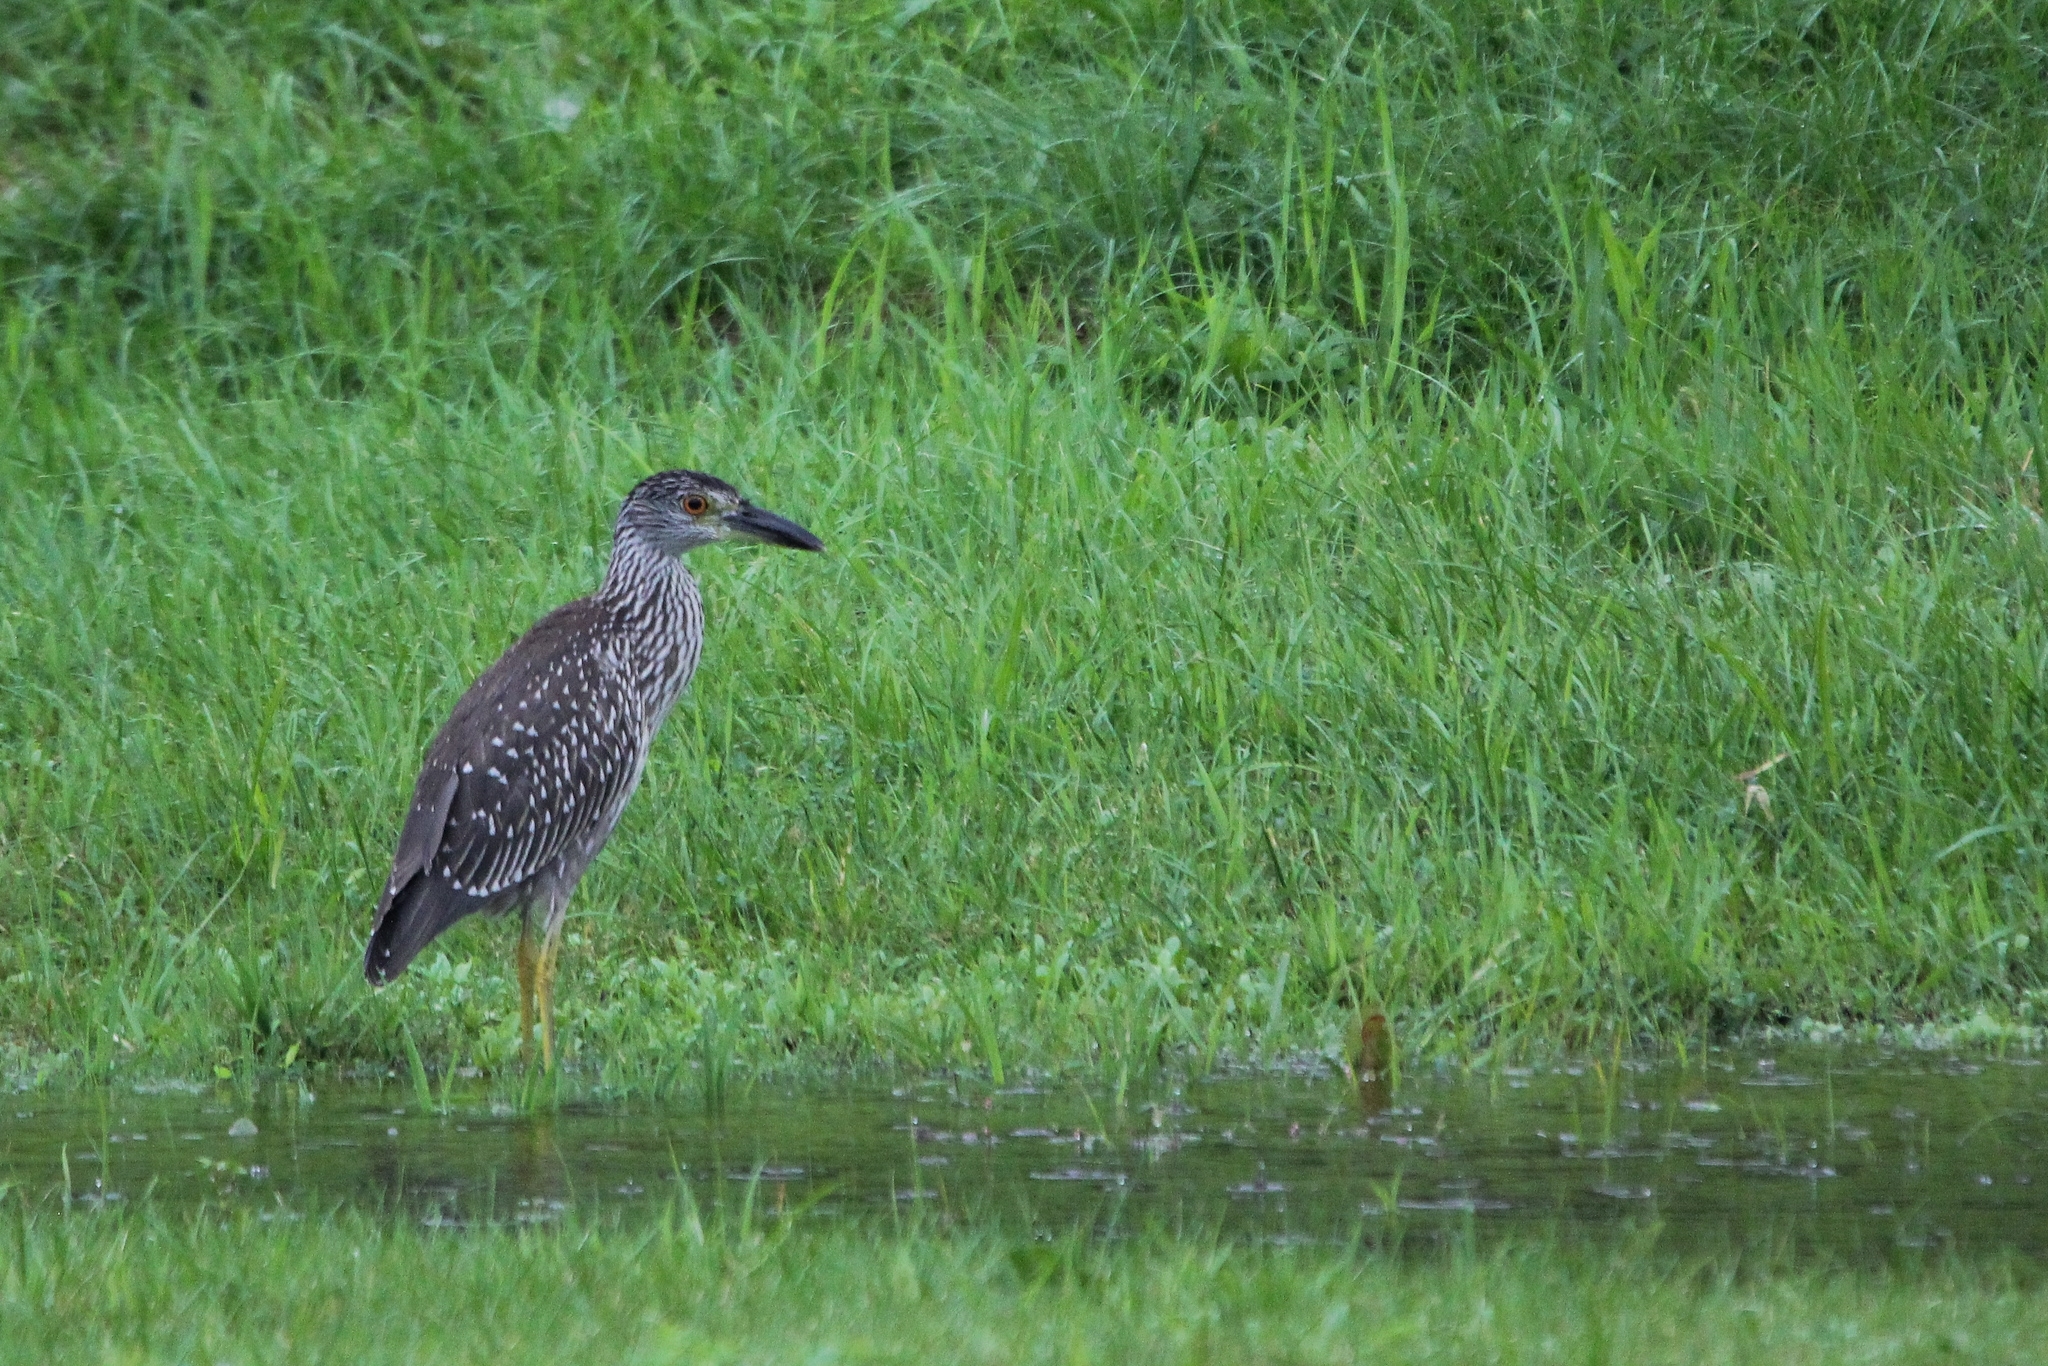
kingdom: Animalia
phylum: Chordata
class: Aves
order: Pelecaniformes
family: Ardeidae
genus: Nyctanassa
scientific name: Nyctanassa violacea
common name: Yellow-crowned night heron
